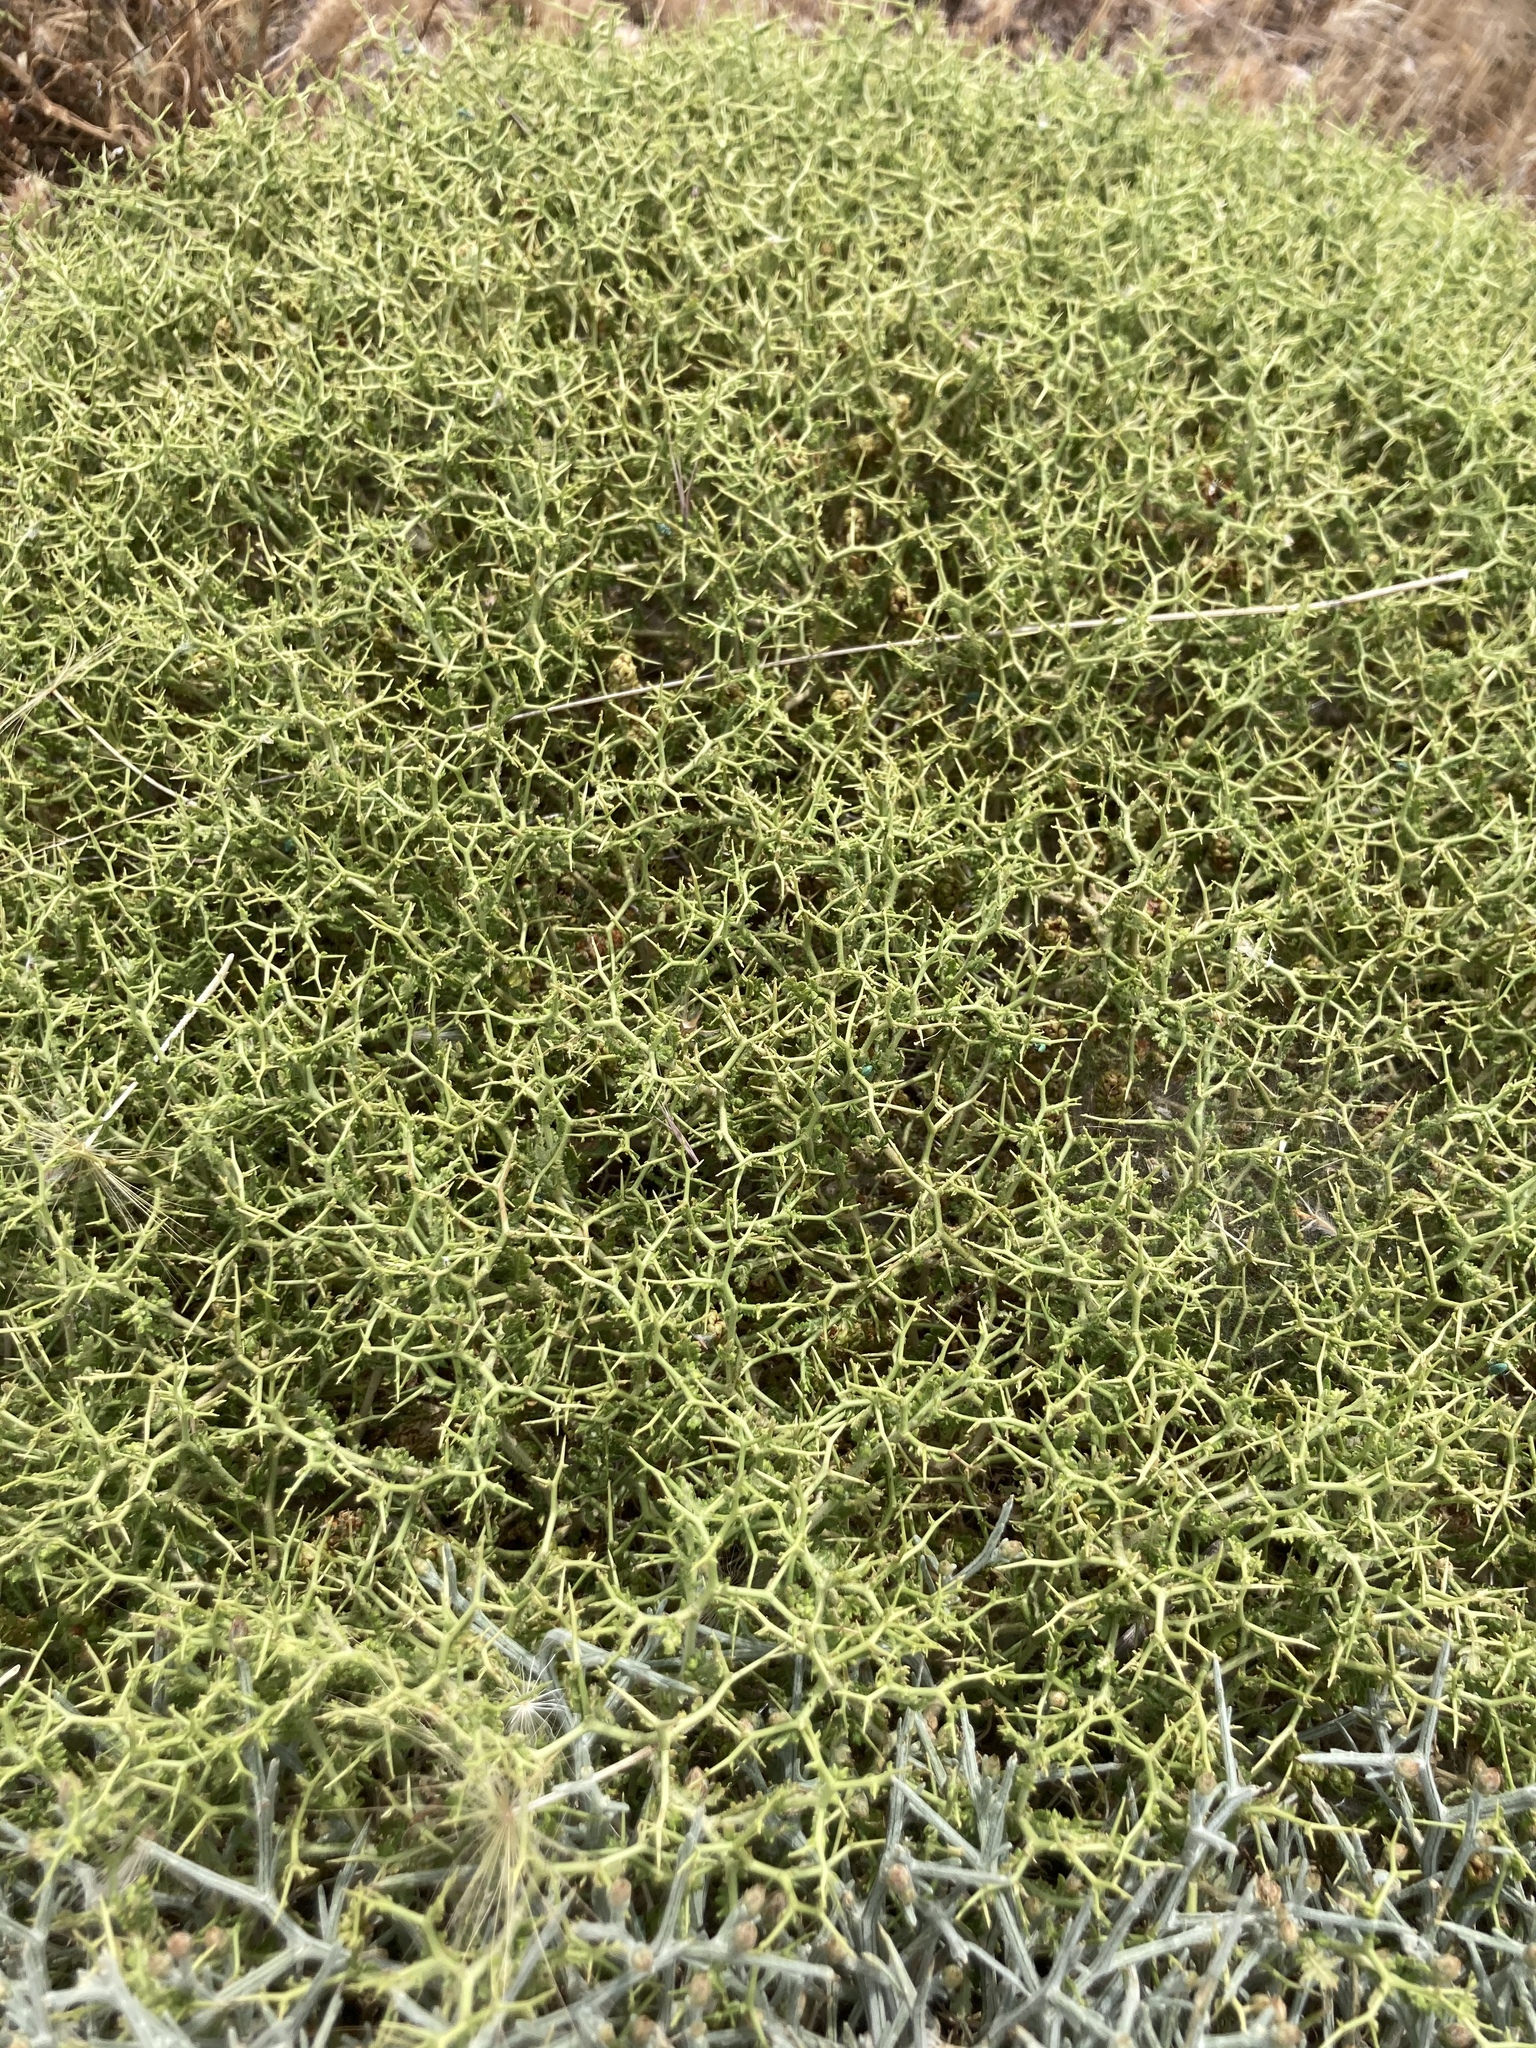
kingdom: Plantae
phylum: Tracheophyta
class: Magnoliopsida
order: Rosales
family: Rosaceae
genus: Sarcopoterium
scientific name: Sarcopoterium spinosum
